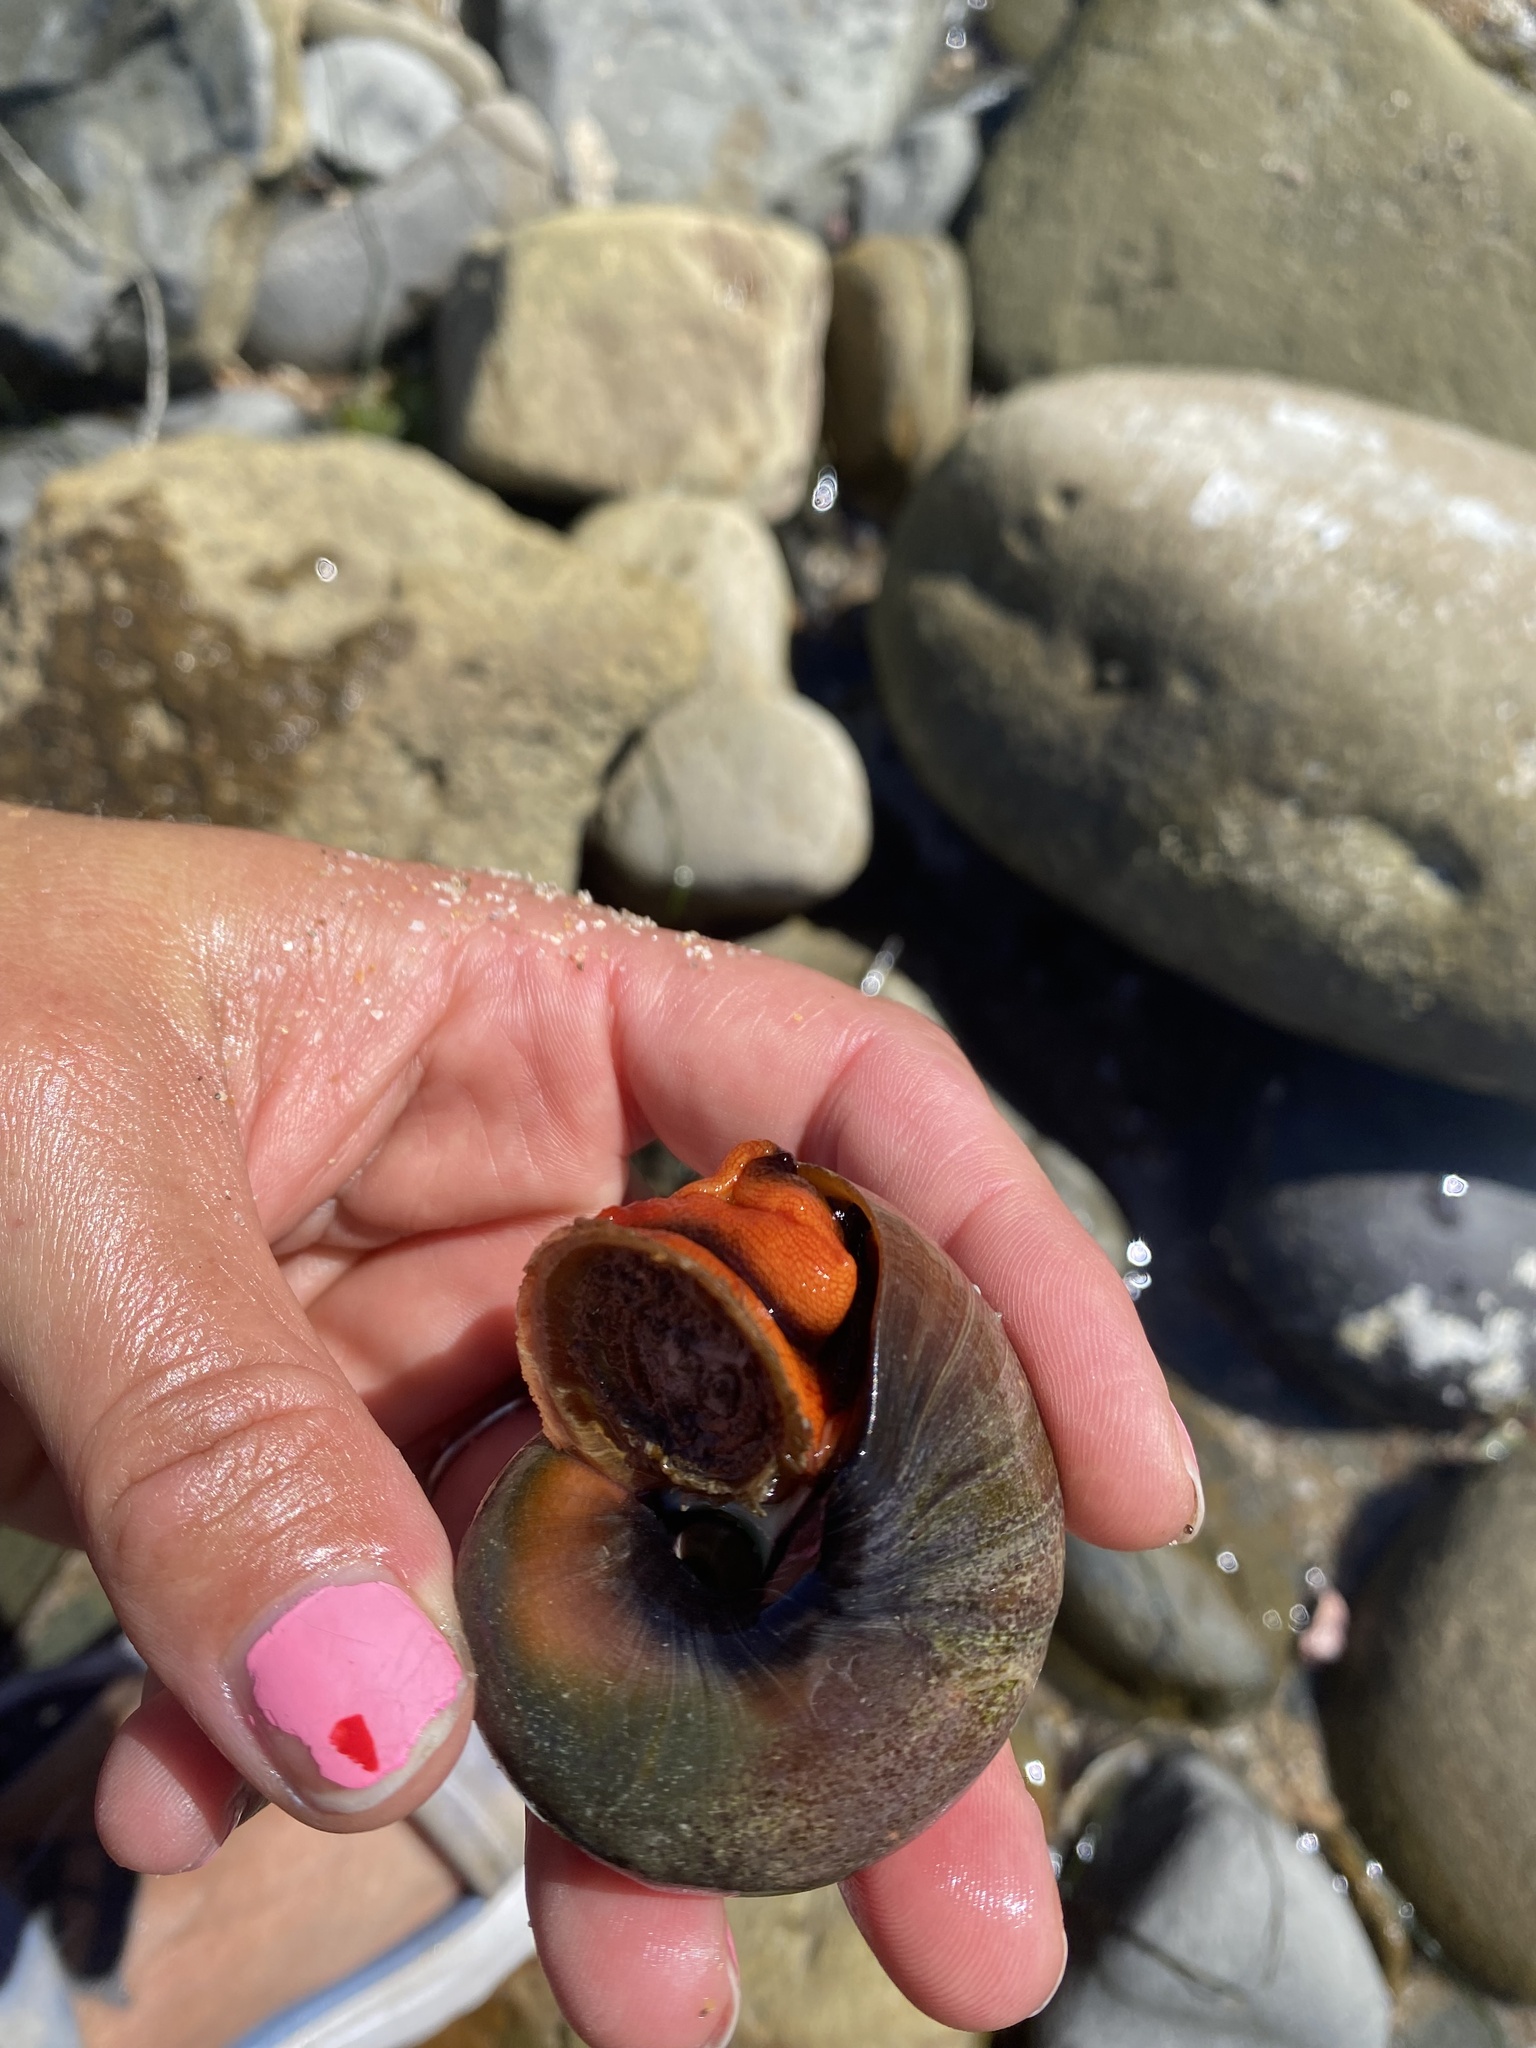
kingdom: Animalia
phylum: Mollusca
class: Gastropoda
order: Trochida
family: Tegulidae
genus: Norrisia
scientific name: Norrisia norrisii
